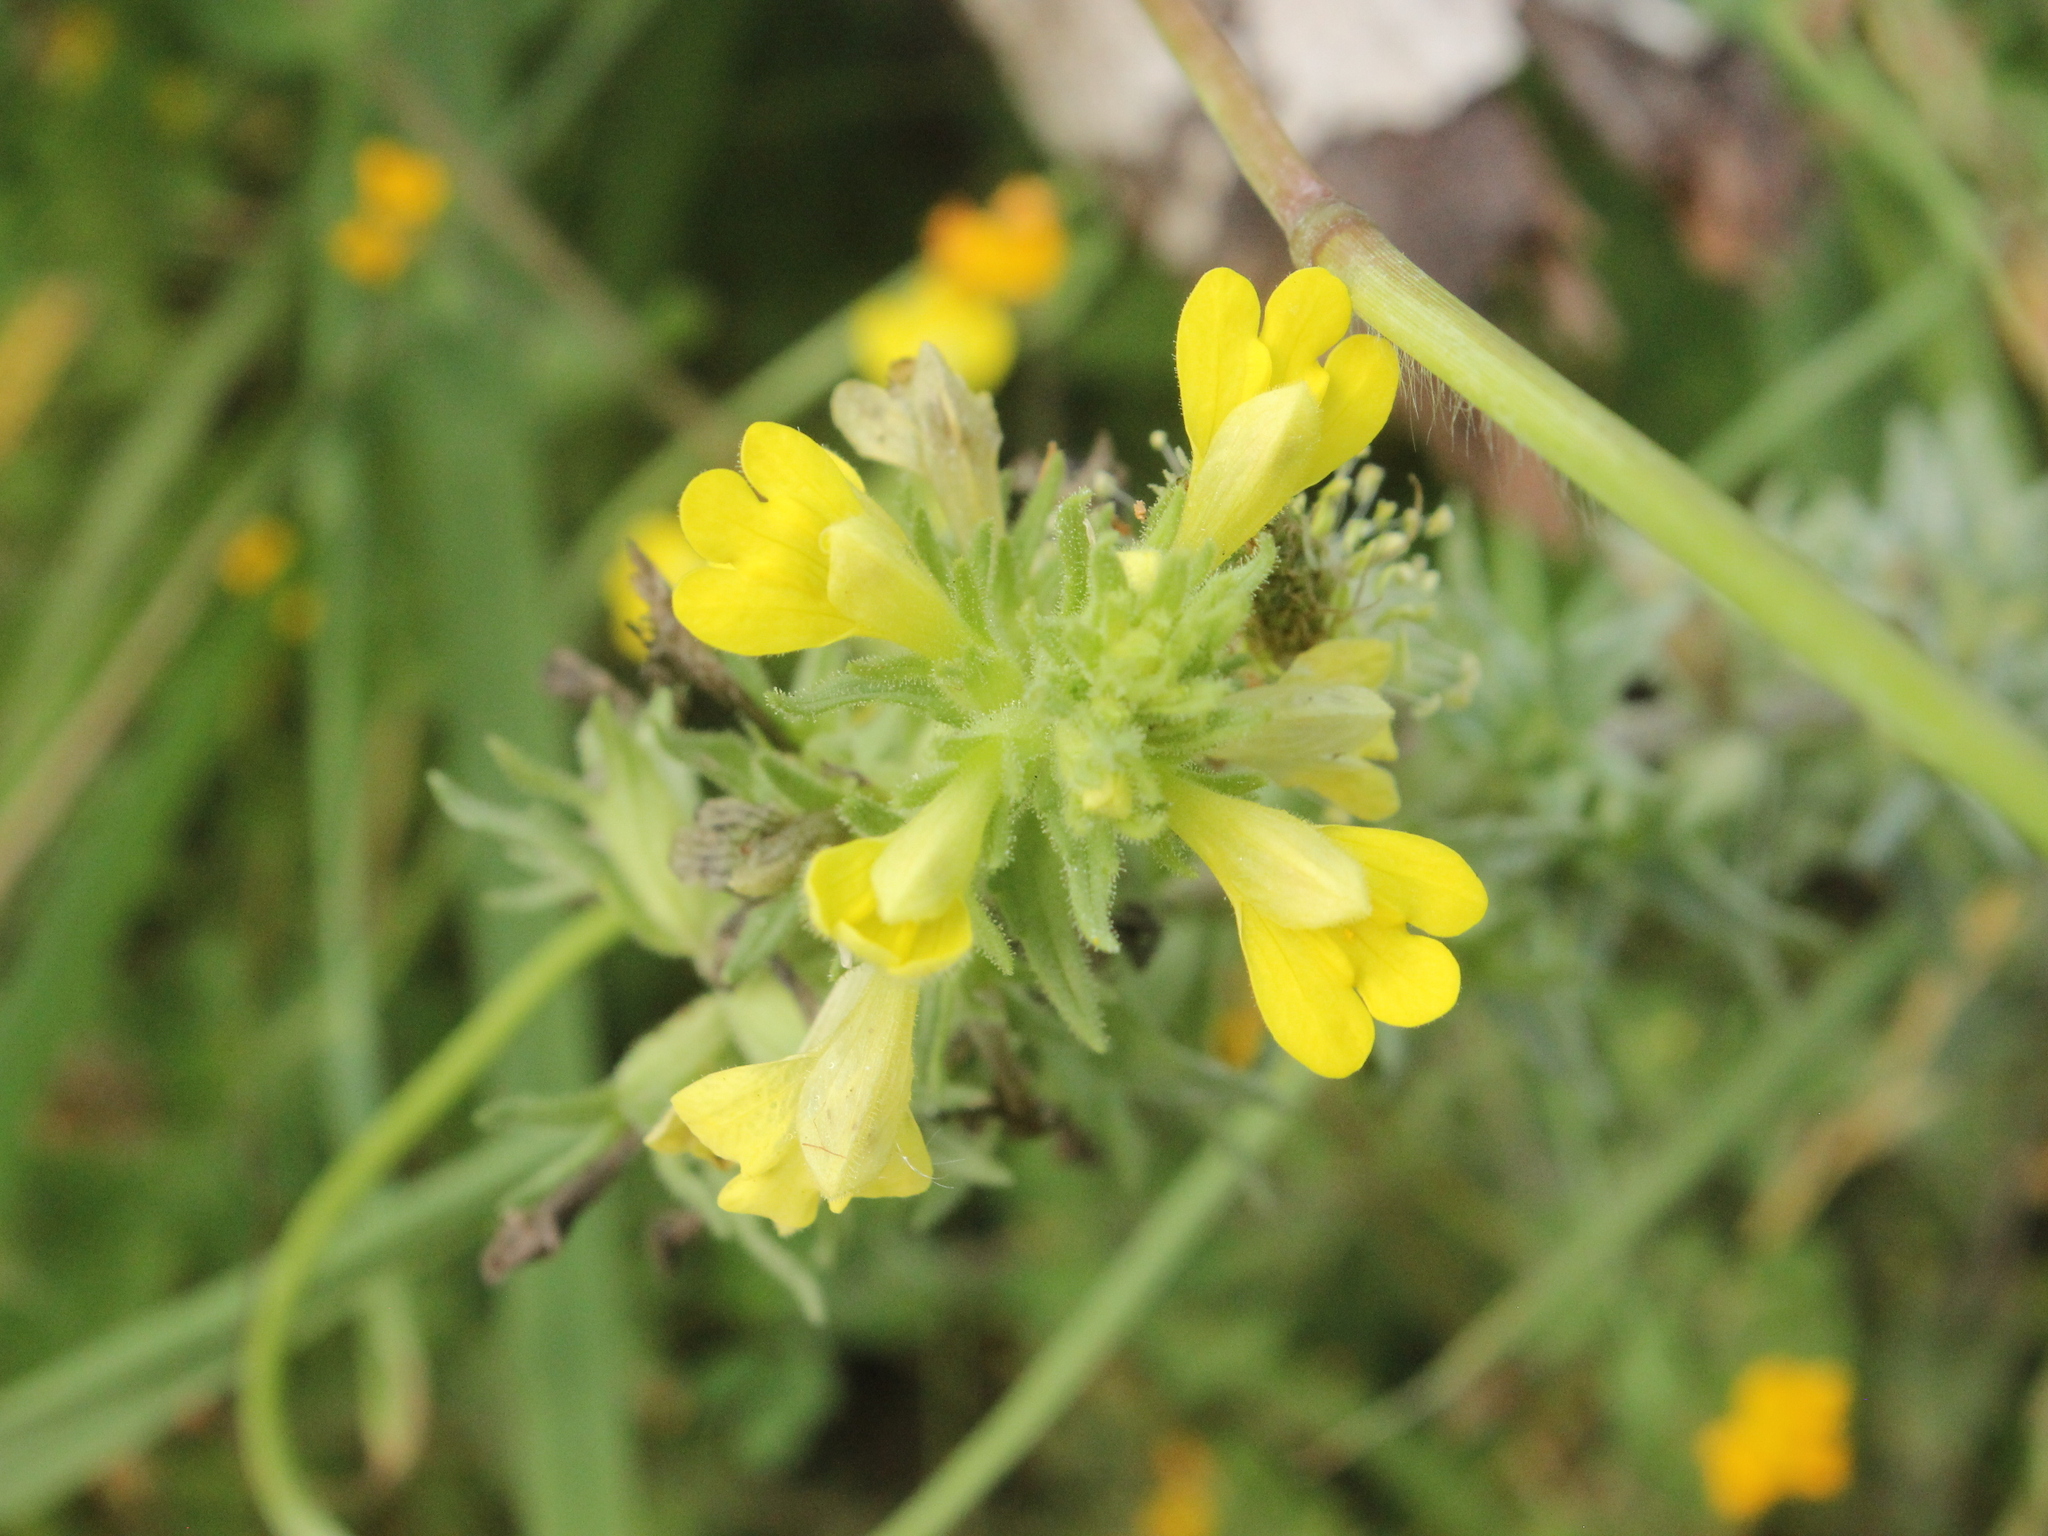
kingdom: Plantae
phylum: Tracheophyta
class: Magnoliopsida
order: Lamiales
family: Orobanchaceae
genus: Bellardia
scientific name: Bellardia viscosa
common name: Sticky parentucellia
